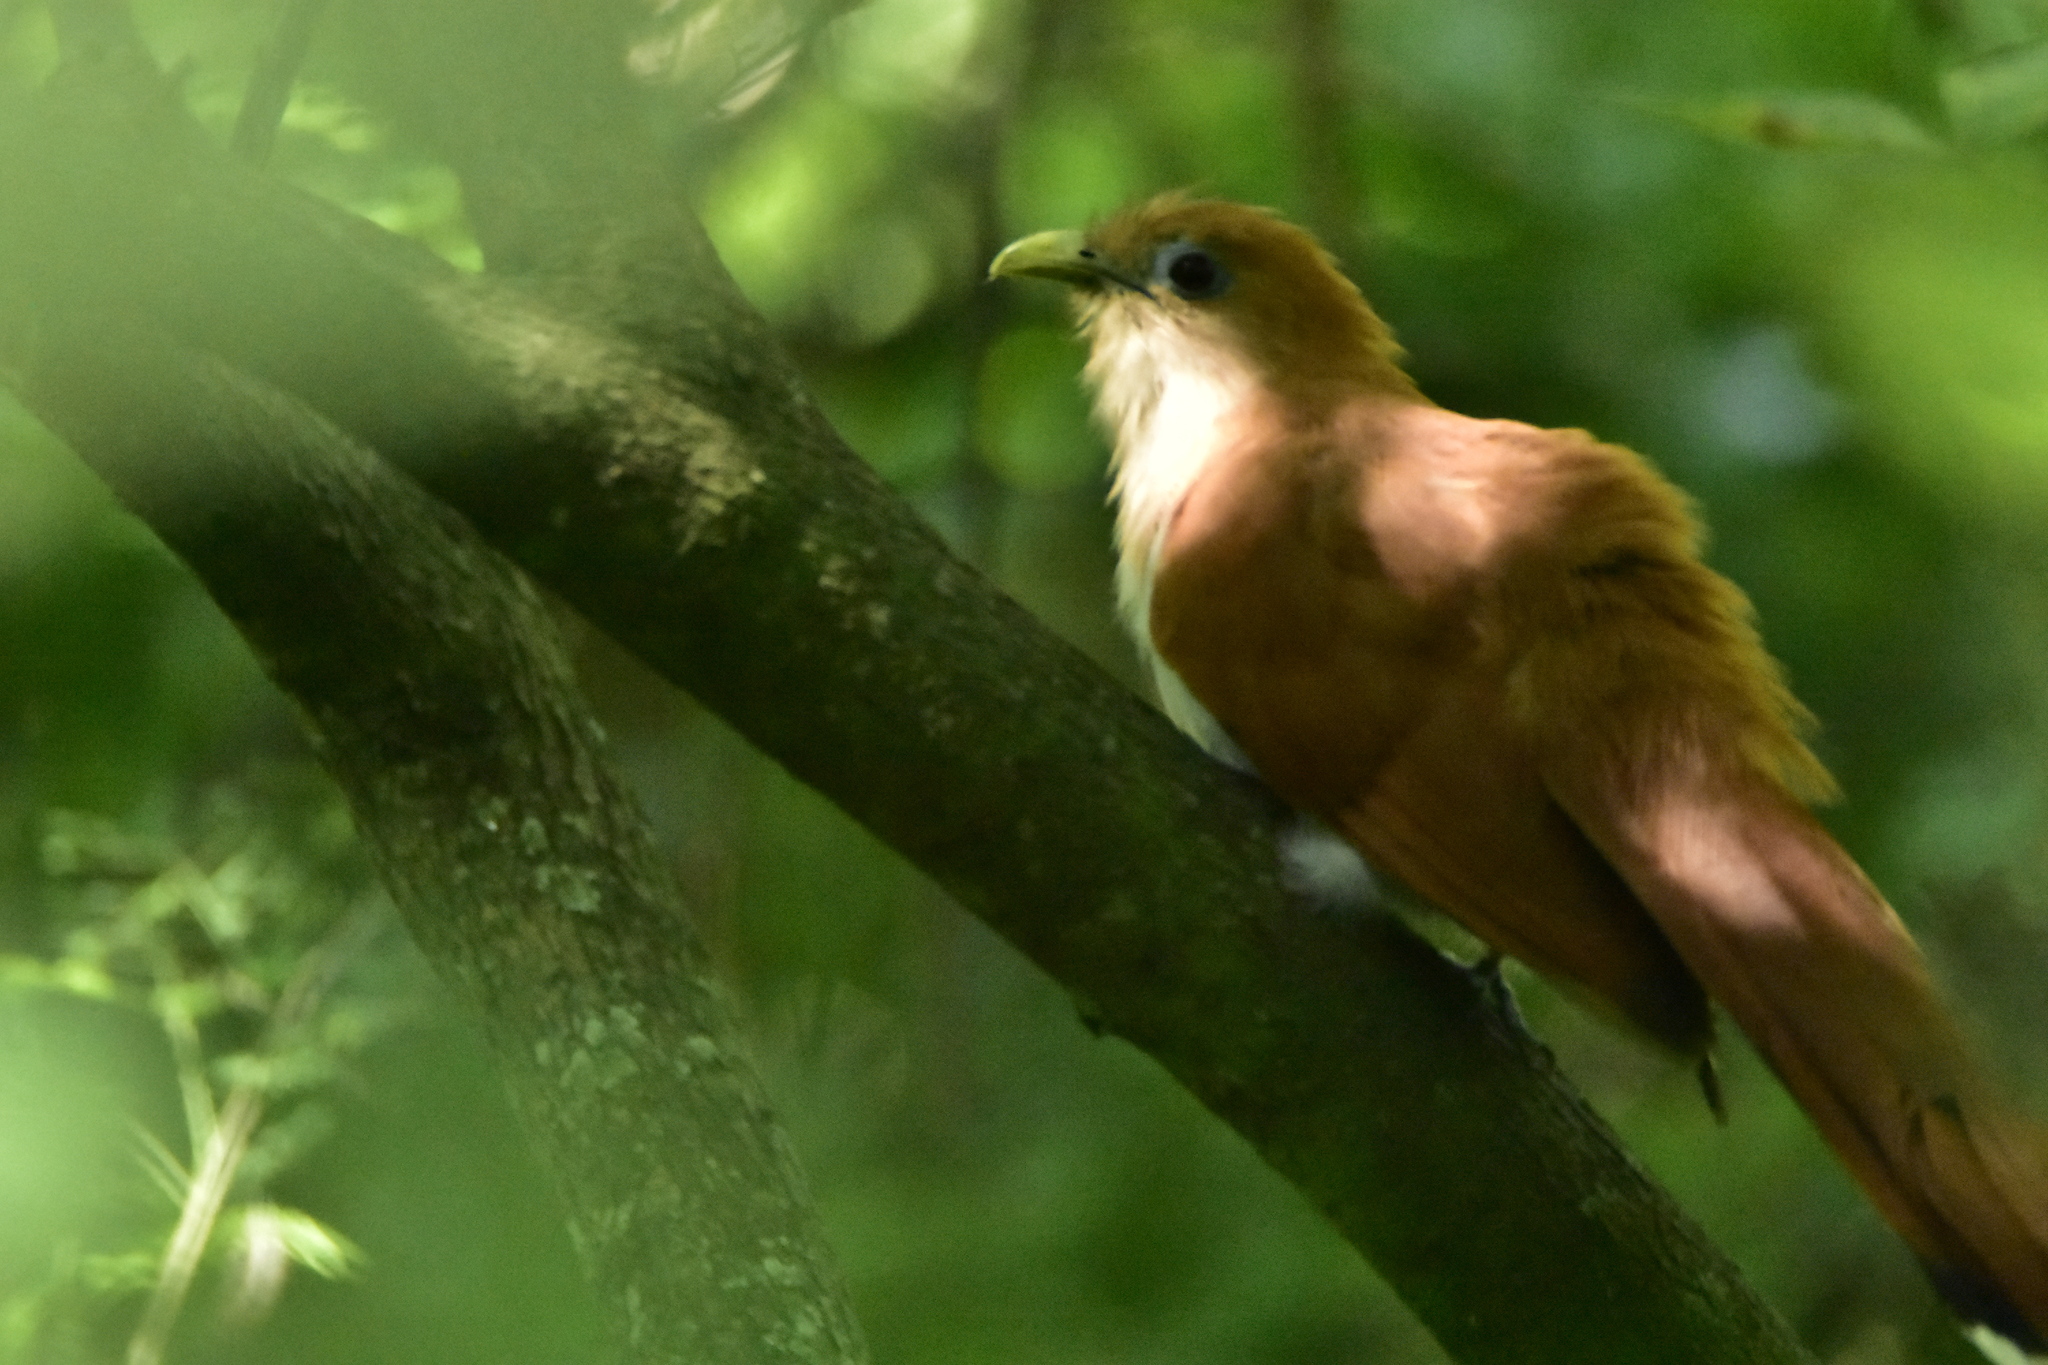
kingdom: Animalia
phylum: Chordata
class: Aves
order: Cuculiformes
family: Cuculidae
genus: Piaya
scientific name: Piaya cayana
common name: Squirrel cuckoo
